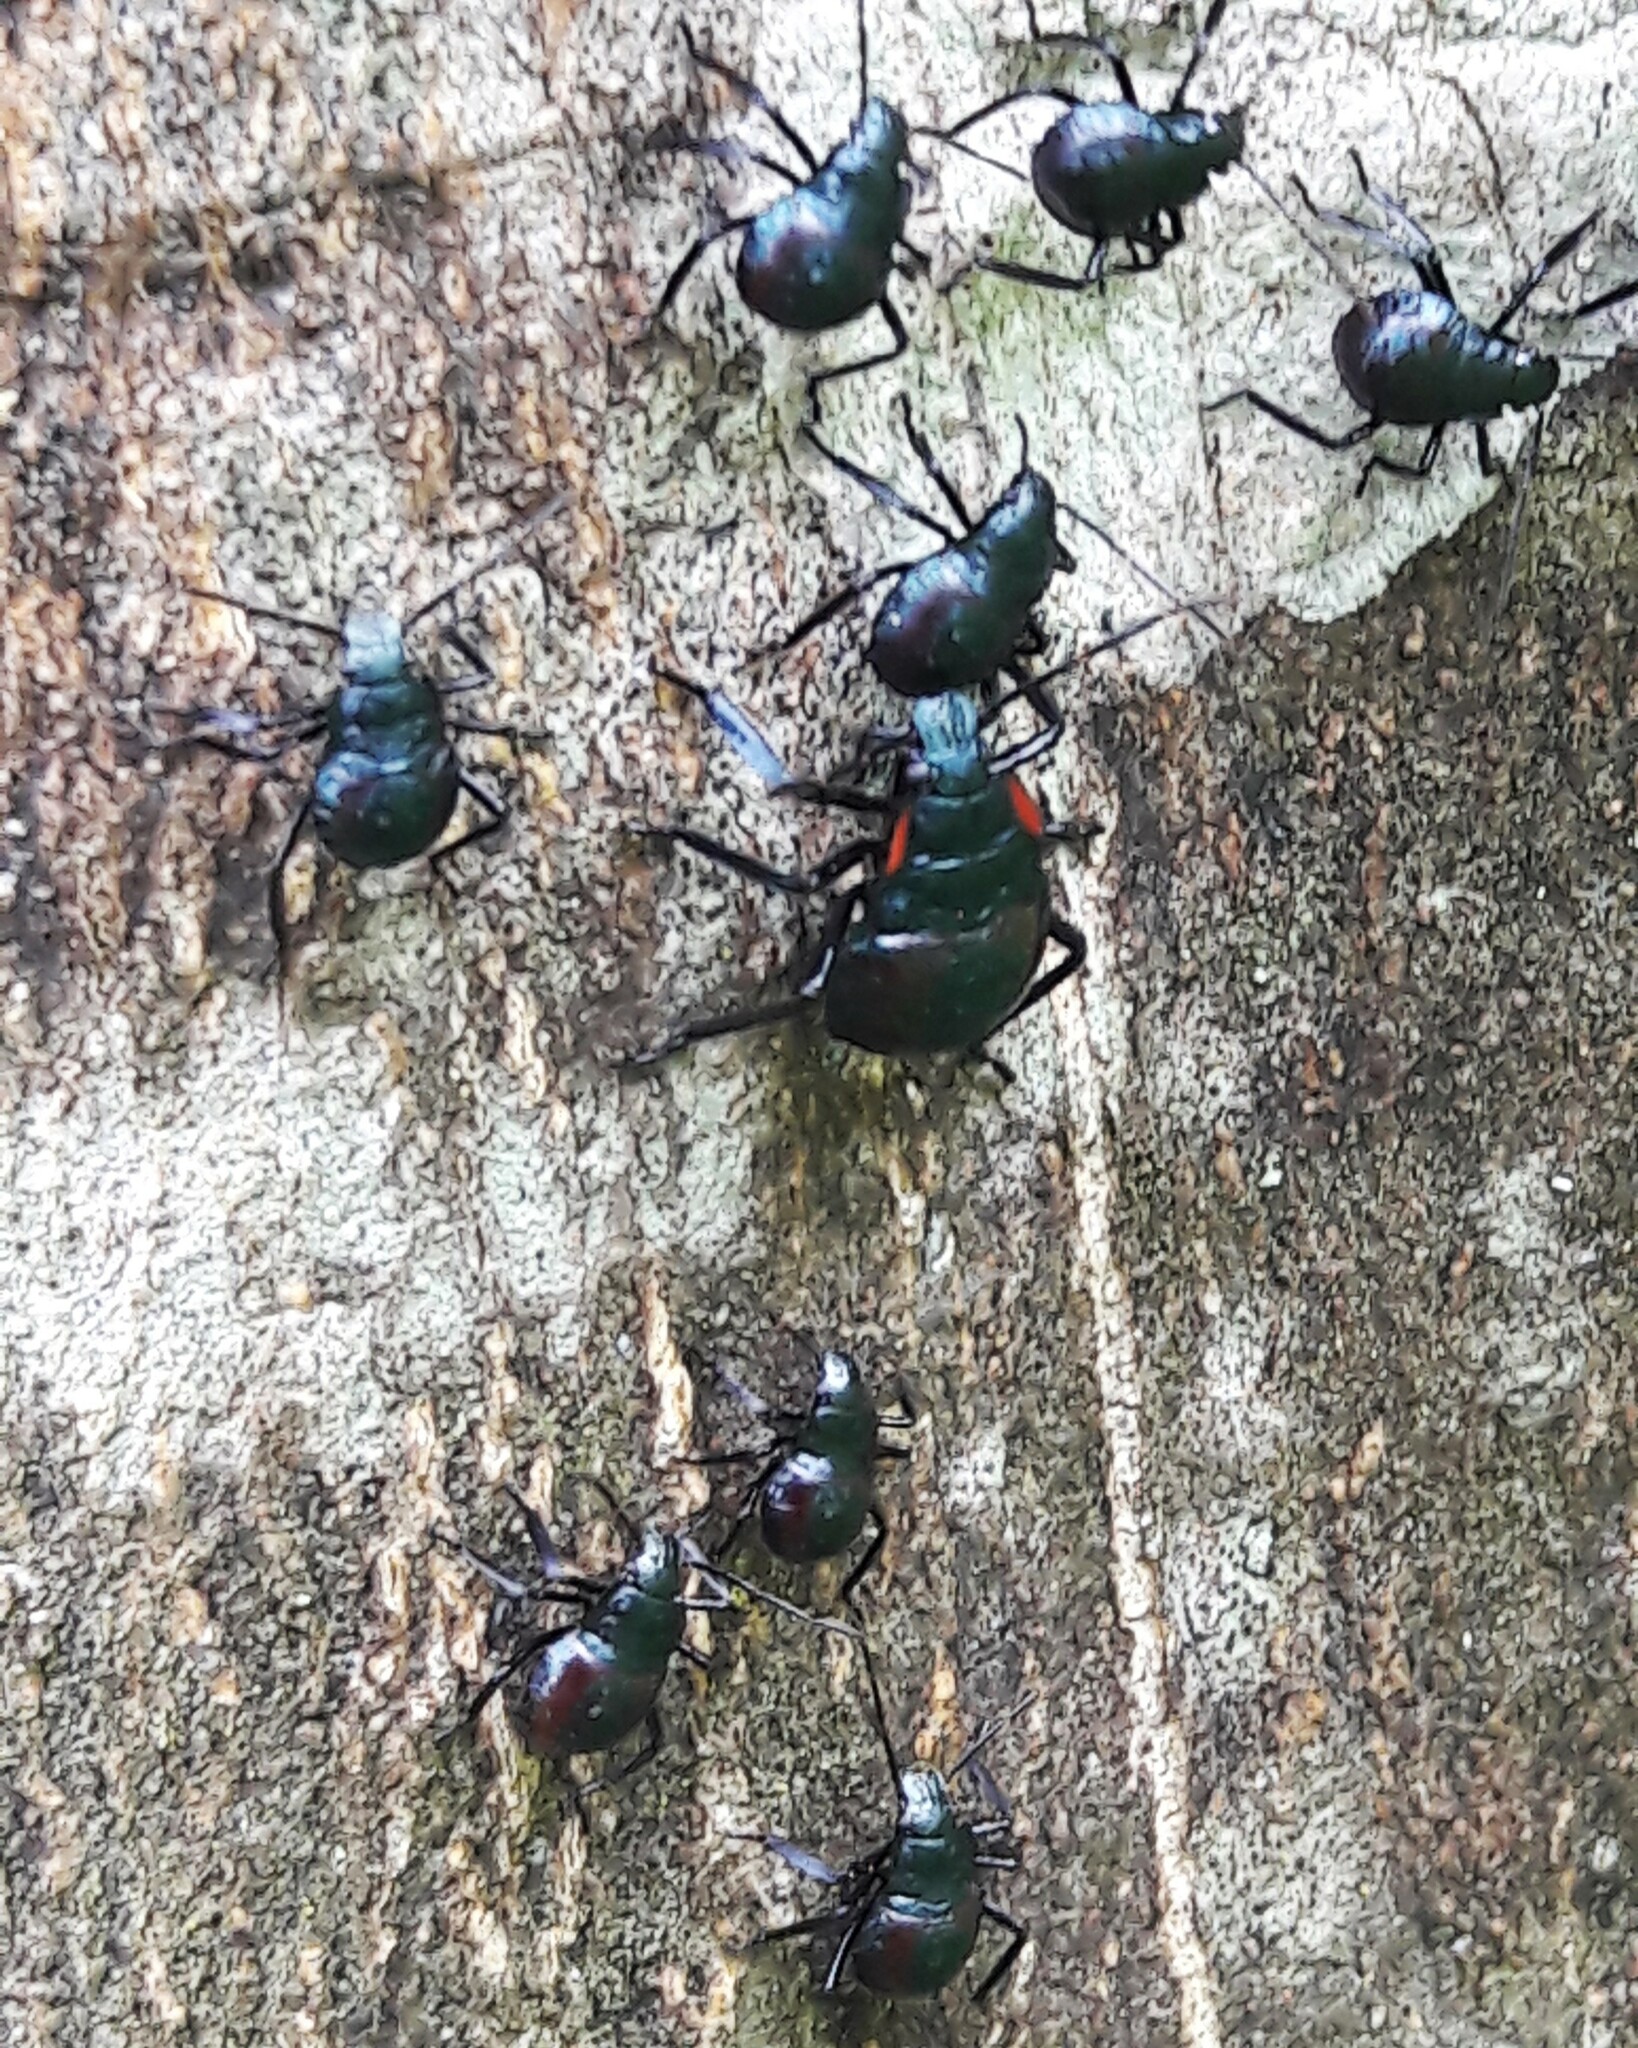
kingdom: Animalia
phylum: Arthropoda
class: Insecta
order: Hemiptera
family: Pentatomidae
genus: Alcaeorrhynchus
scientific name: Alcaeorrhynchus grandis
